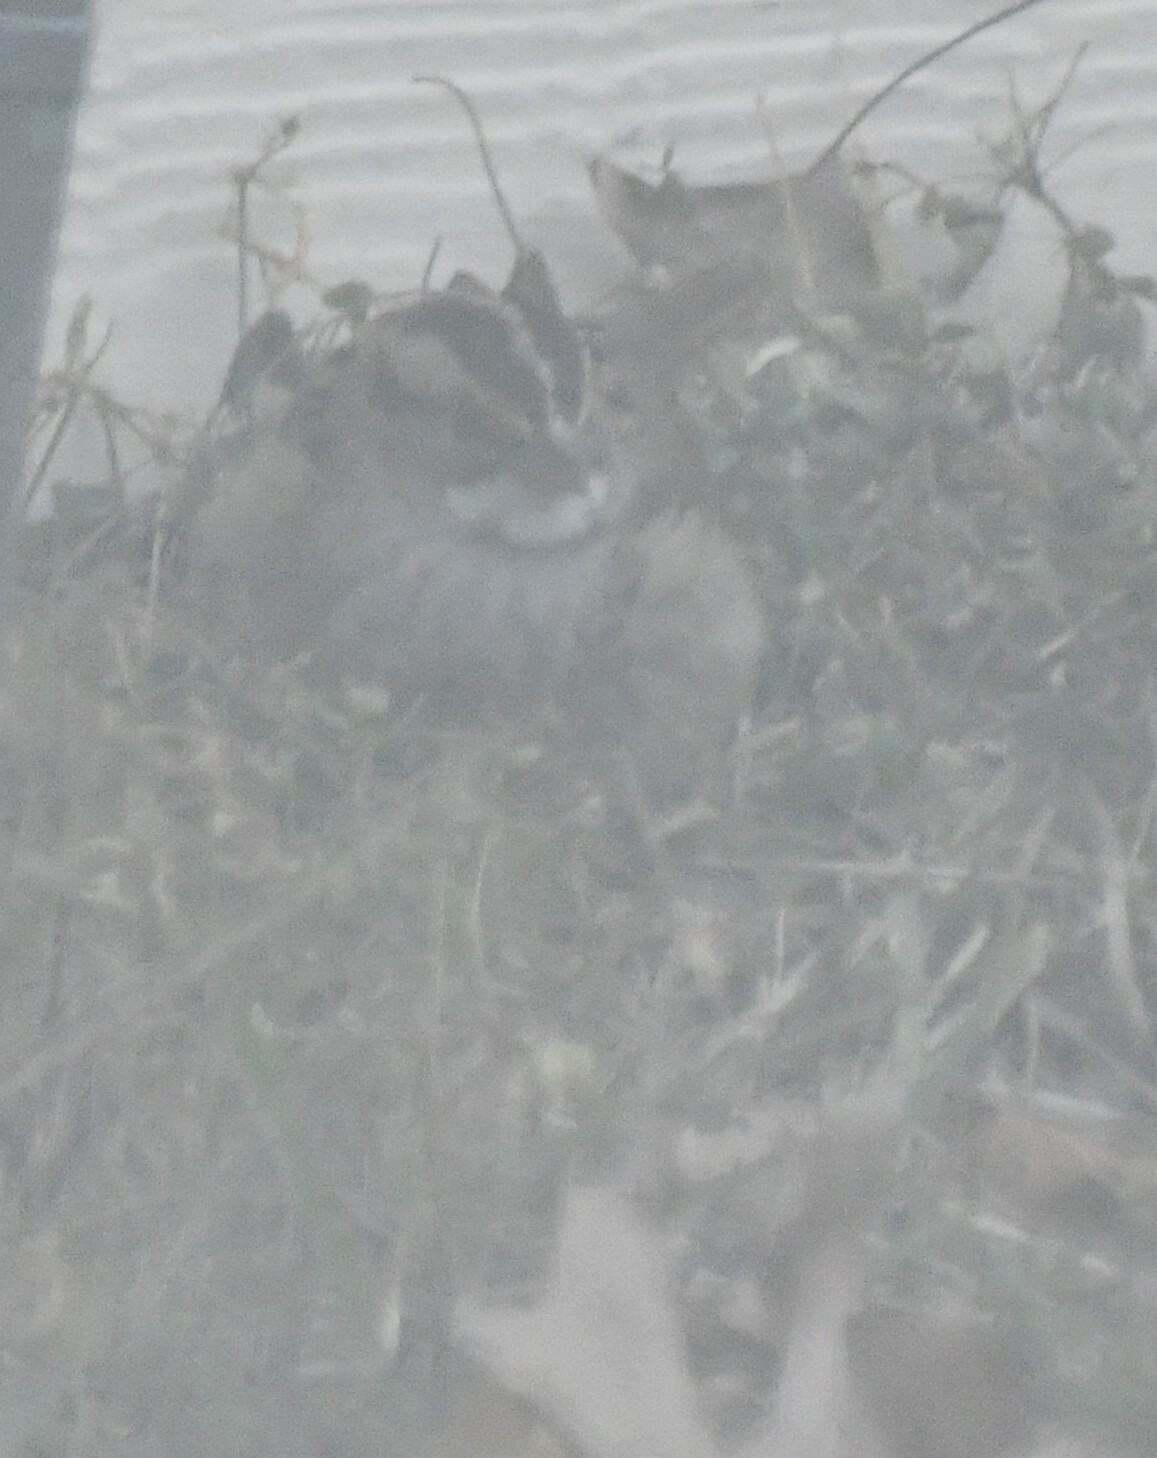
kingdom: Animalia
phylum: Chordata
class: Aves
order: Passeriformes
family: Passerellidae
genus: Zonotrichia
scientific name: Zonotrichia albicollis
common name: White-throated sparrow
